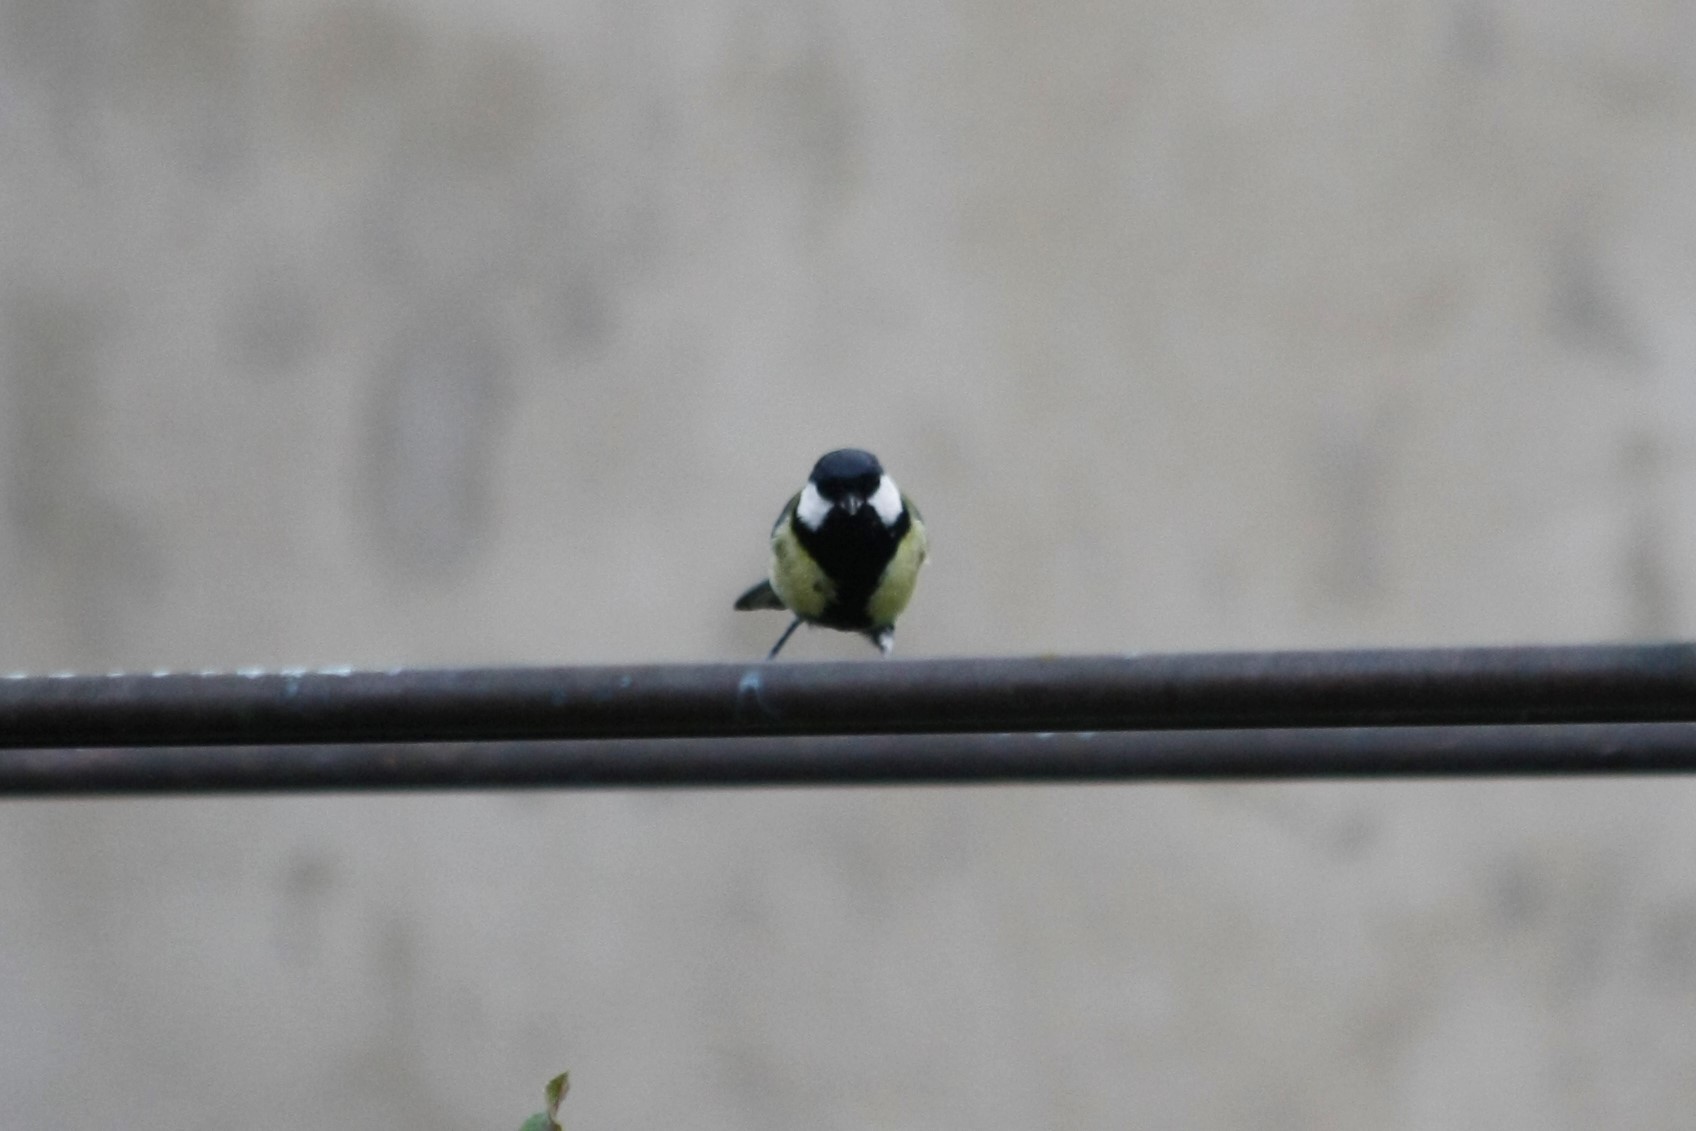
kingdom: Animalia
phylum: Chordata
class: Aves
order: Passeriformes
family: Paridae
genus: Parus
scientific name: Parus major
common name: Great tit
